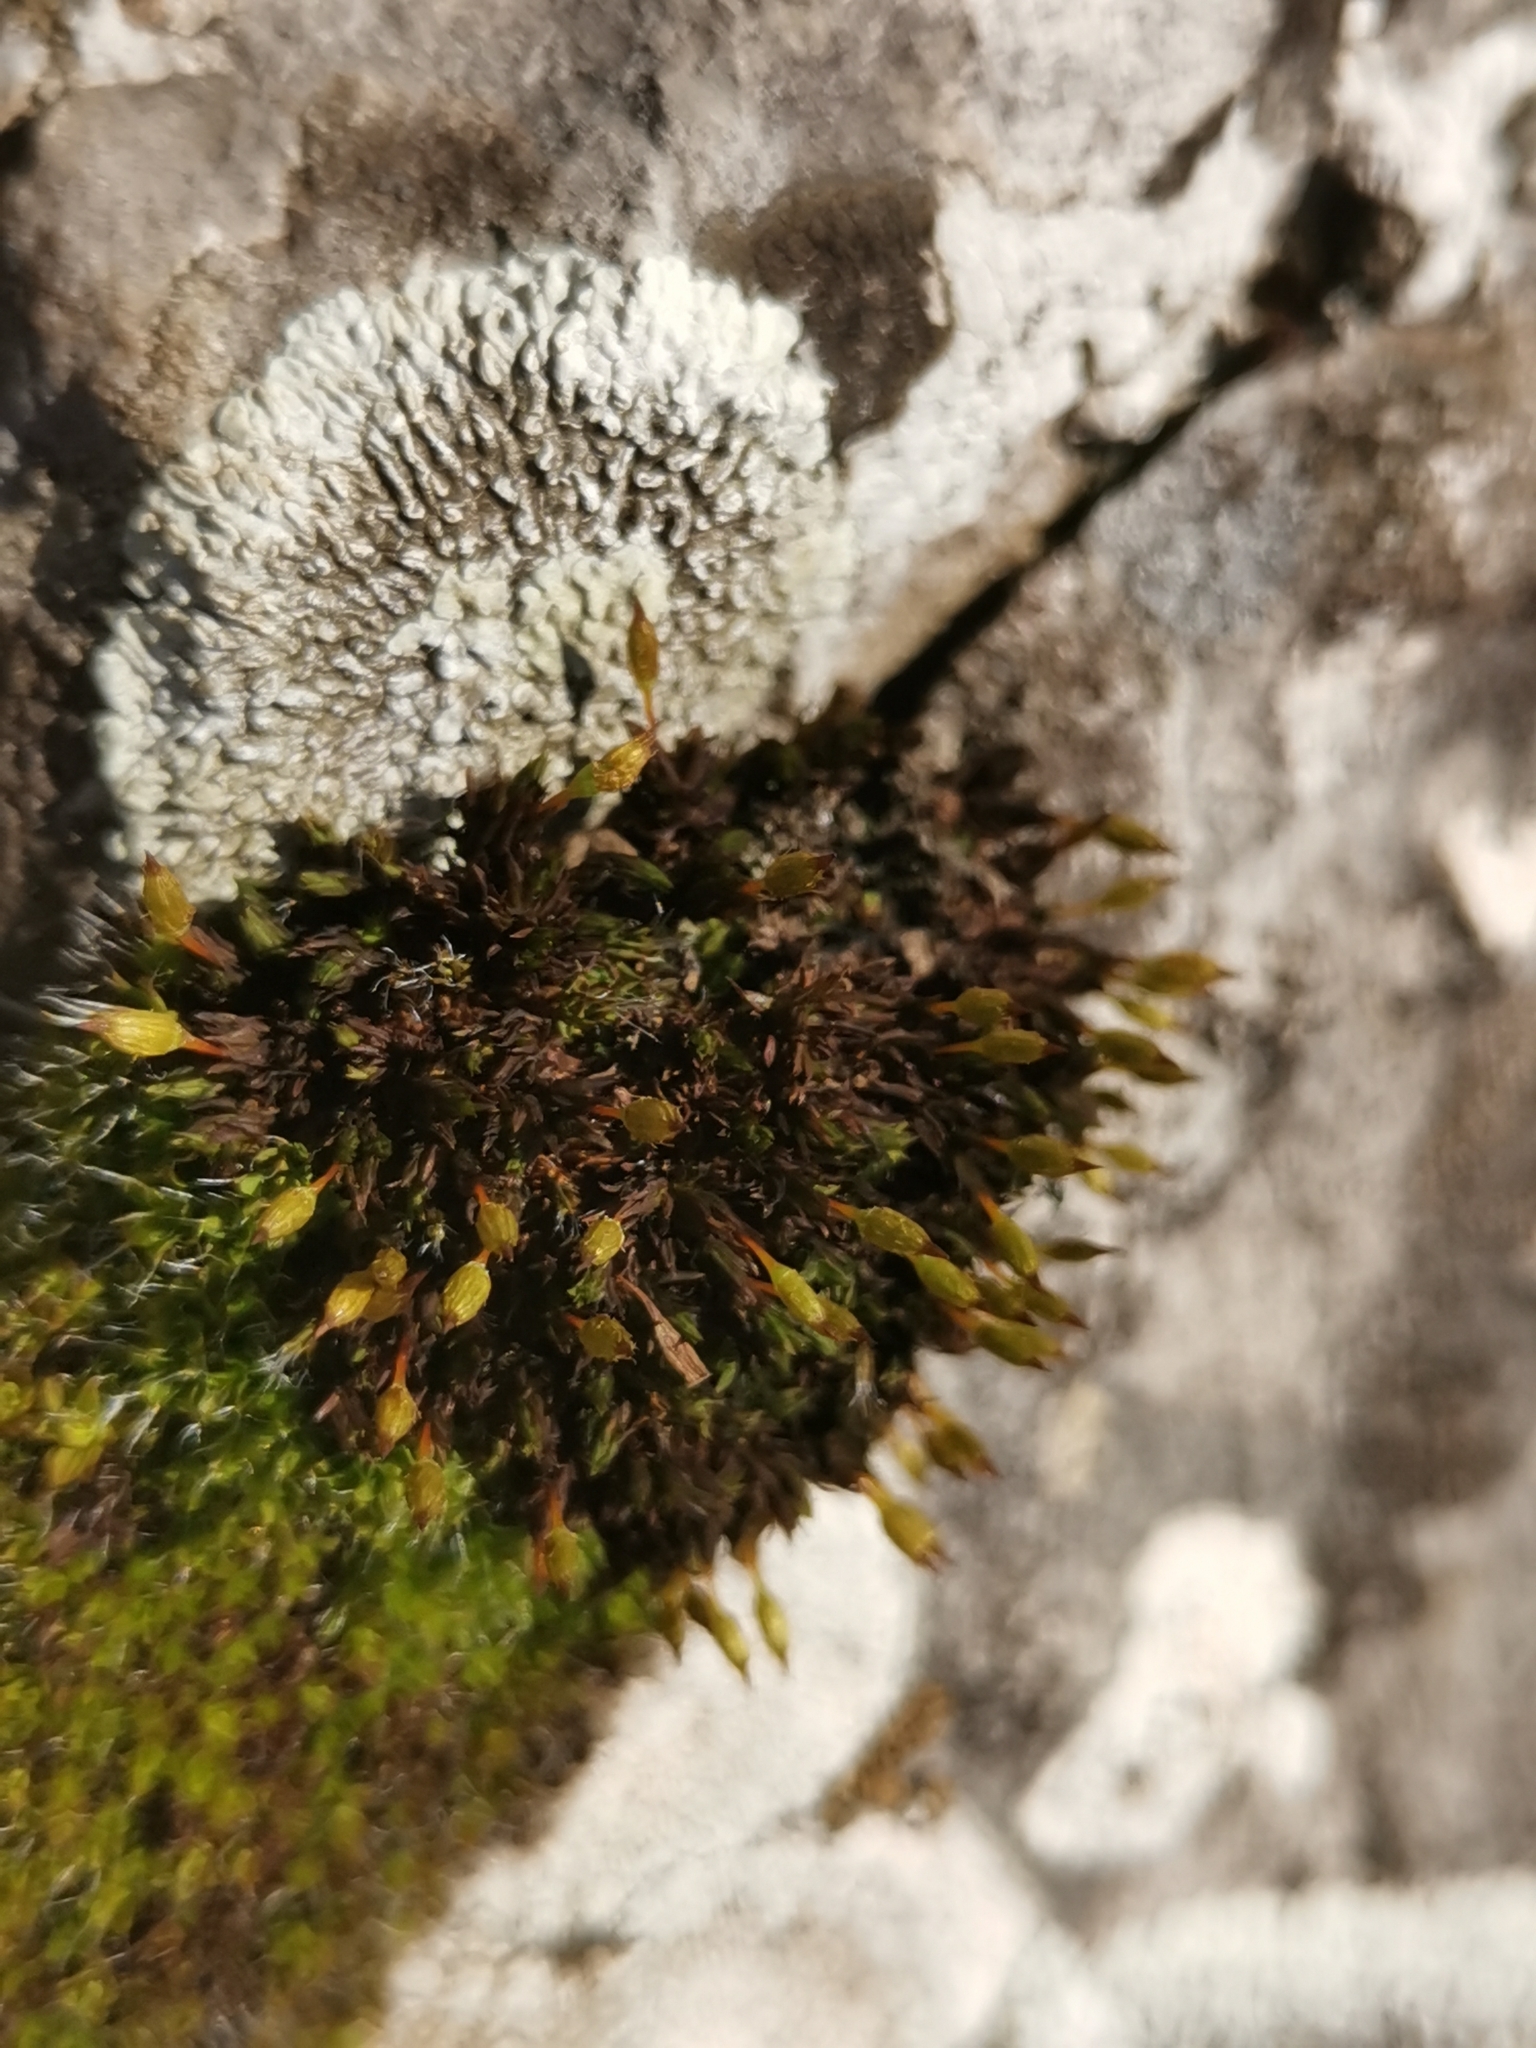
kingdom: Plantae
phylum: Bryophyta
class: Bryopsida
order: Orthotrichales
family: Orthotrichaceae
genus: Orthotrichum
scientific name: Orthotrichum anomalum
